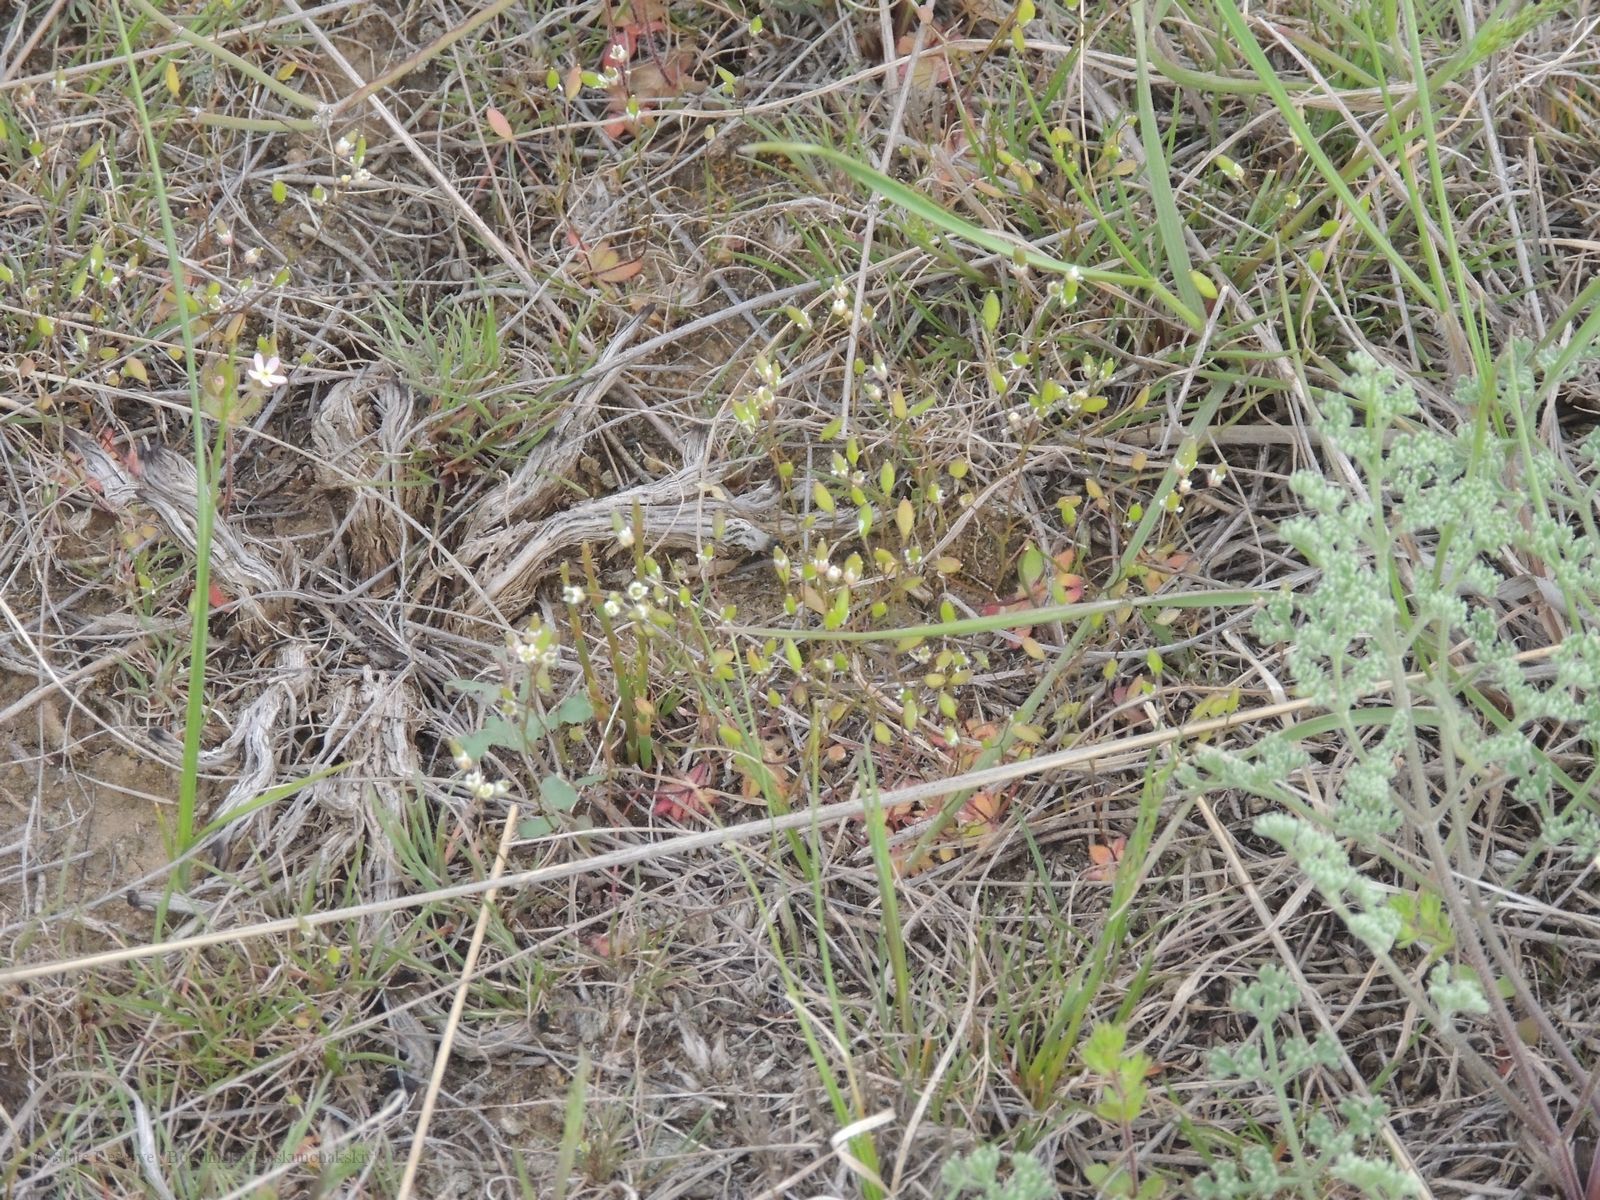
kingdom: Plantae
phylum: Tracheophyta
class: Magnoliopsida
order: Brassicales
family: Brassicaceae
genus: Draba
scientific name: Draba verna
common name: Spring draba
